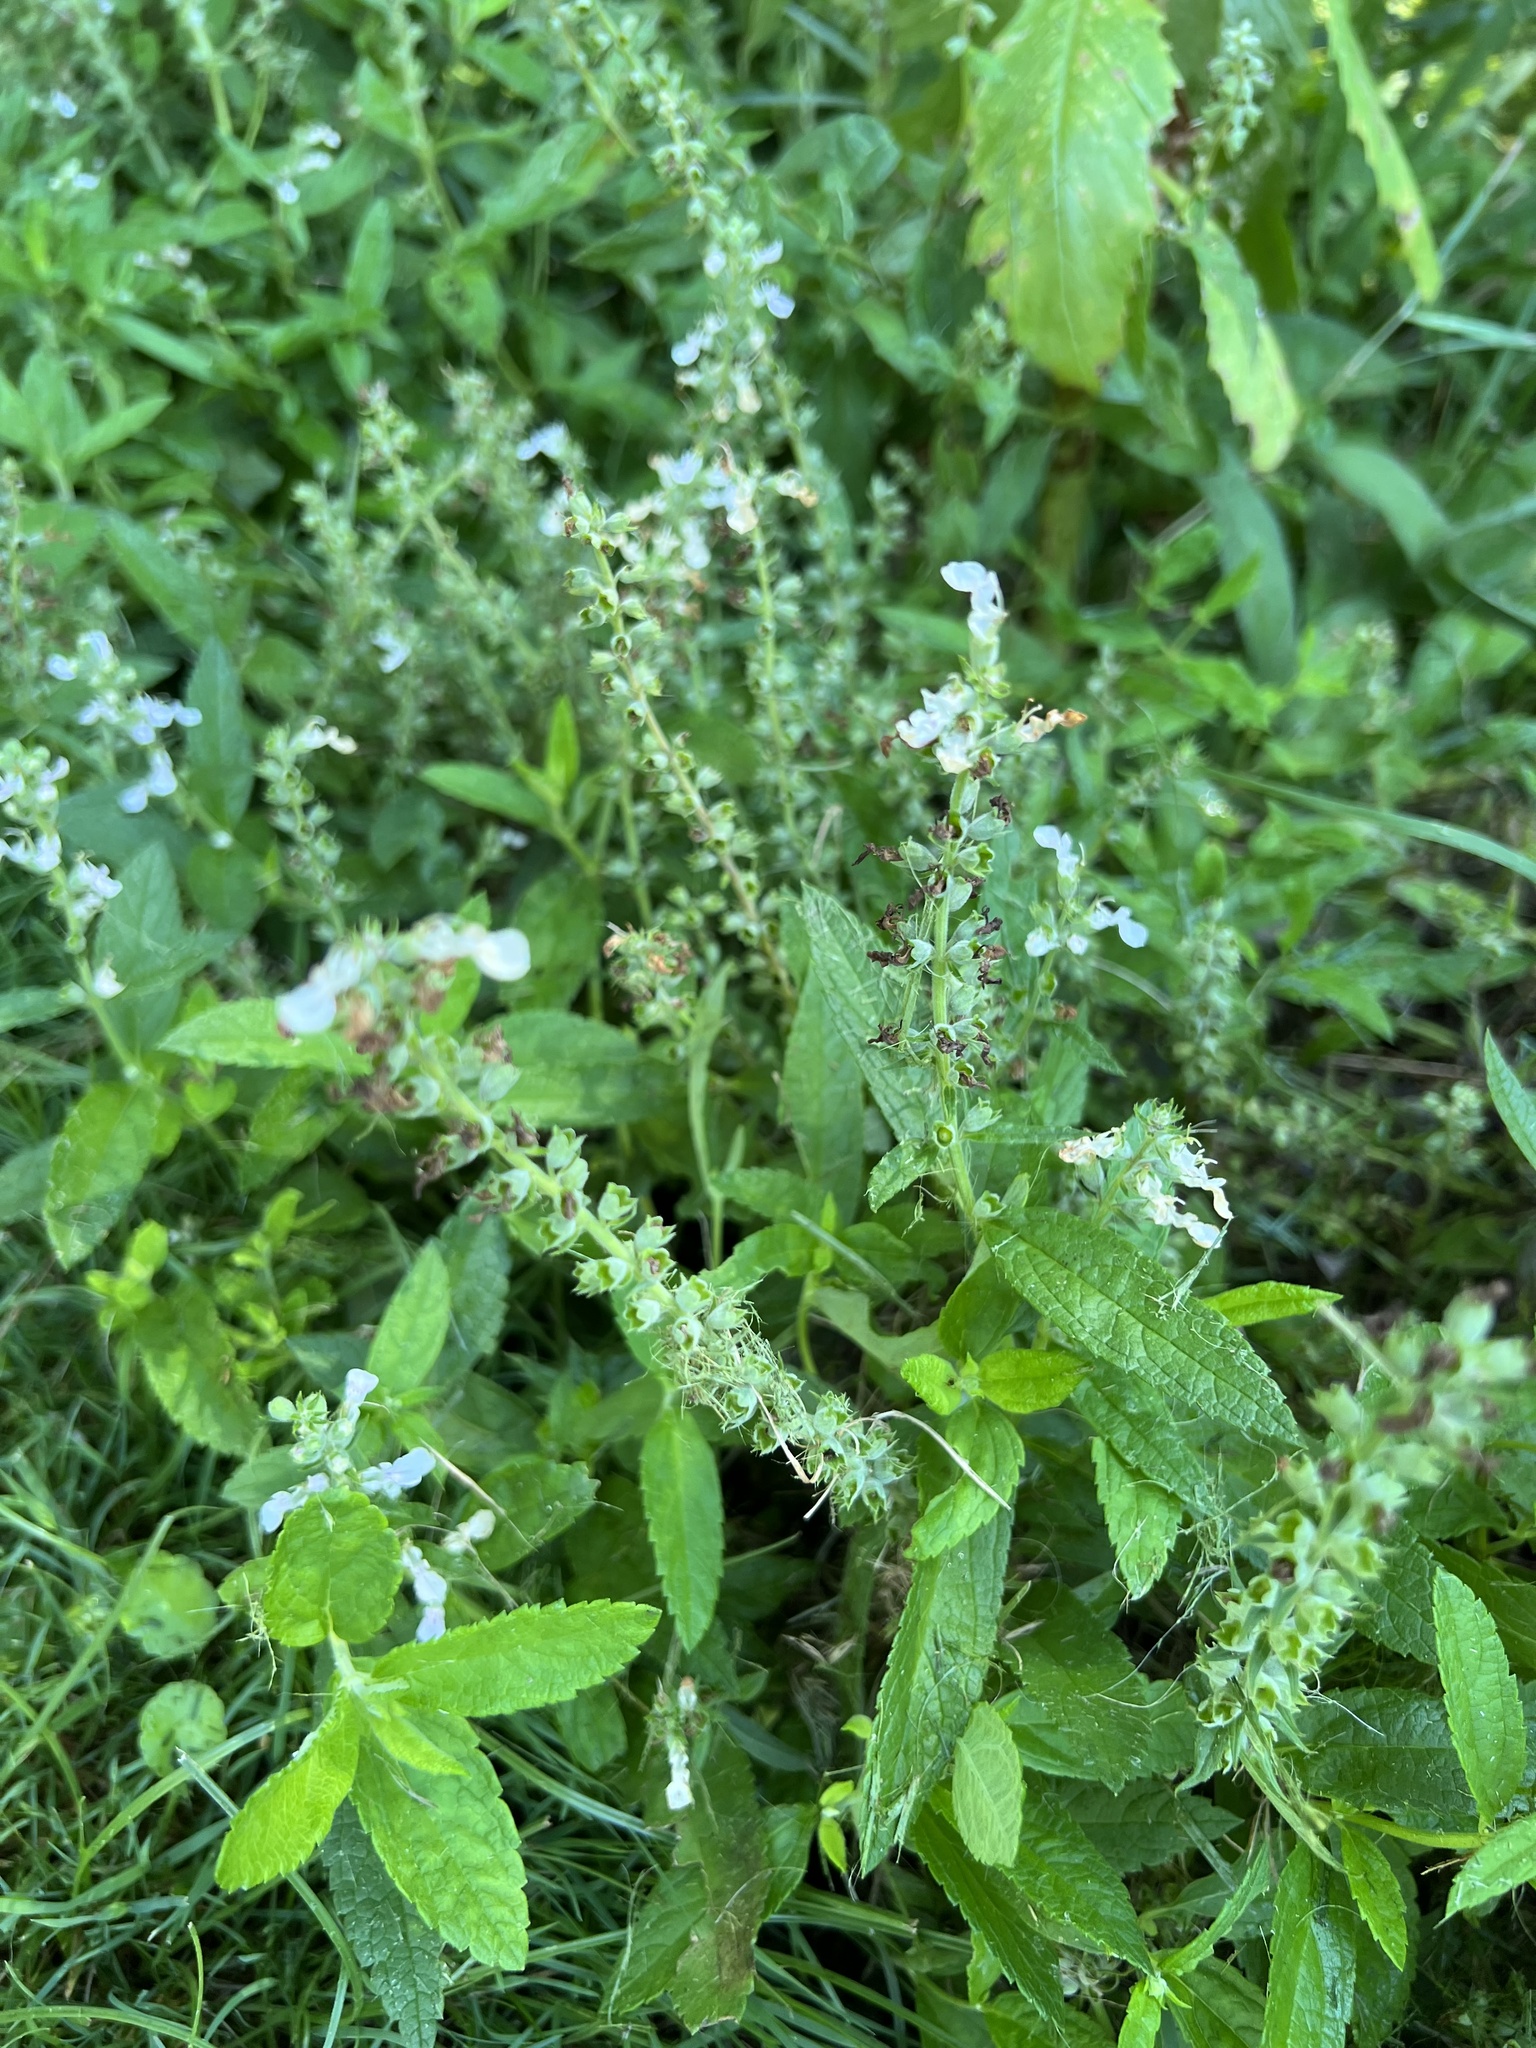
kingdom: Plantae
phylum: Tracheophyta
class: Magnoliopsida
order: Lamiales
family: Lamiaceae
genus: Teucrium
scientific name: Teucrium canadense
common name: American germander
